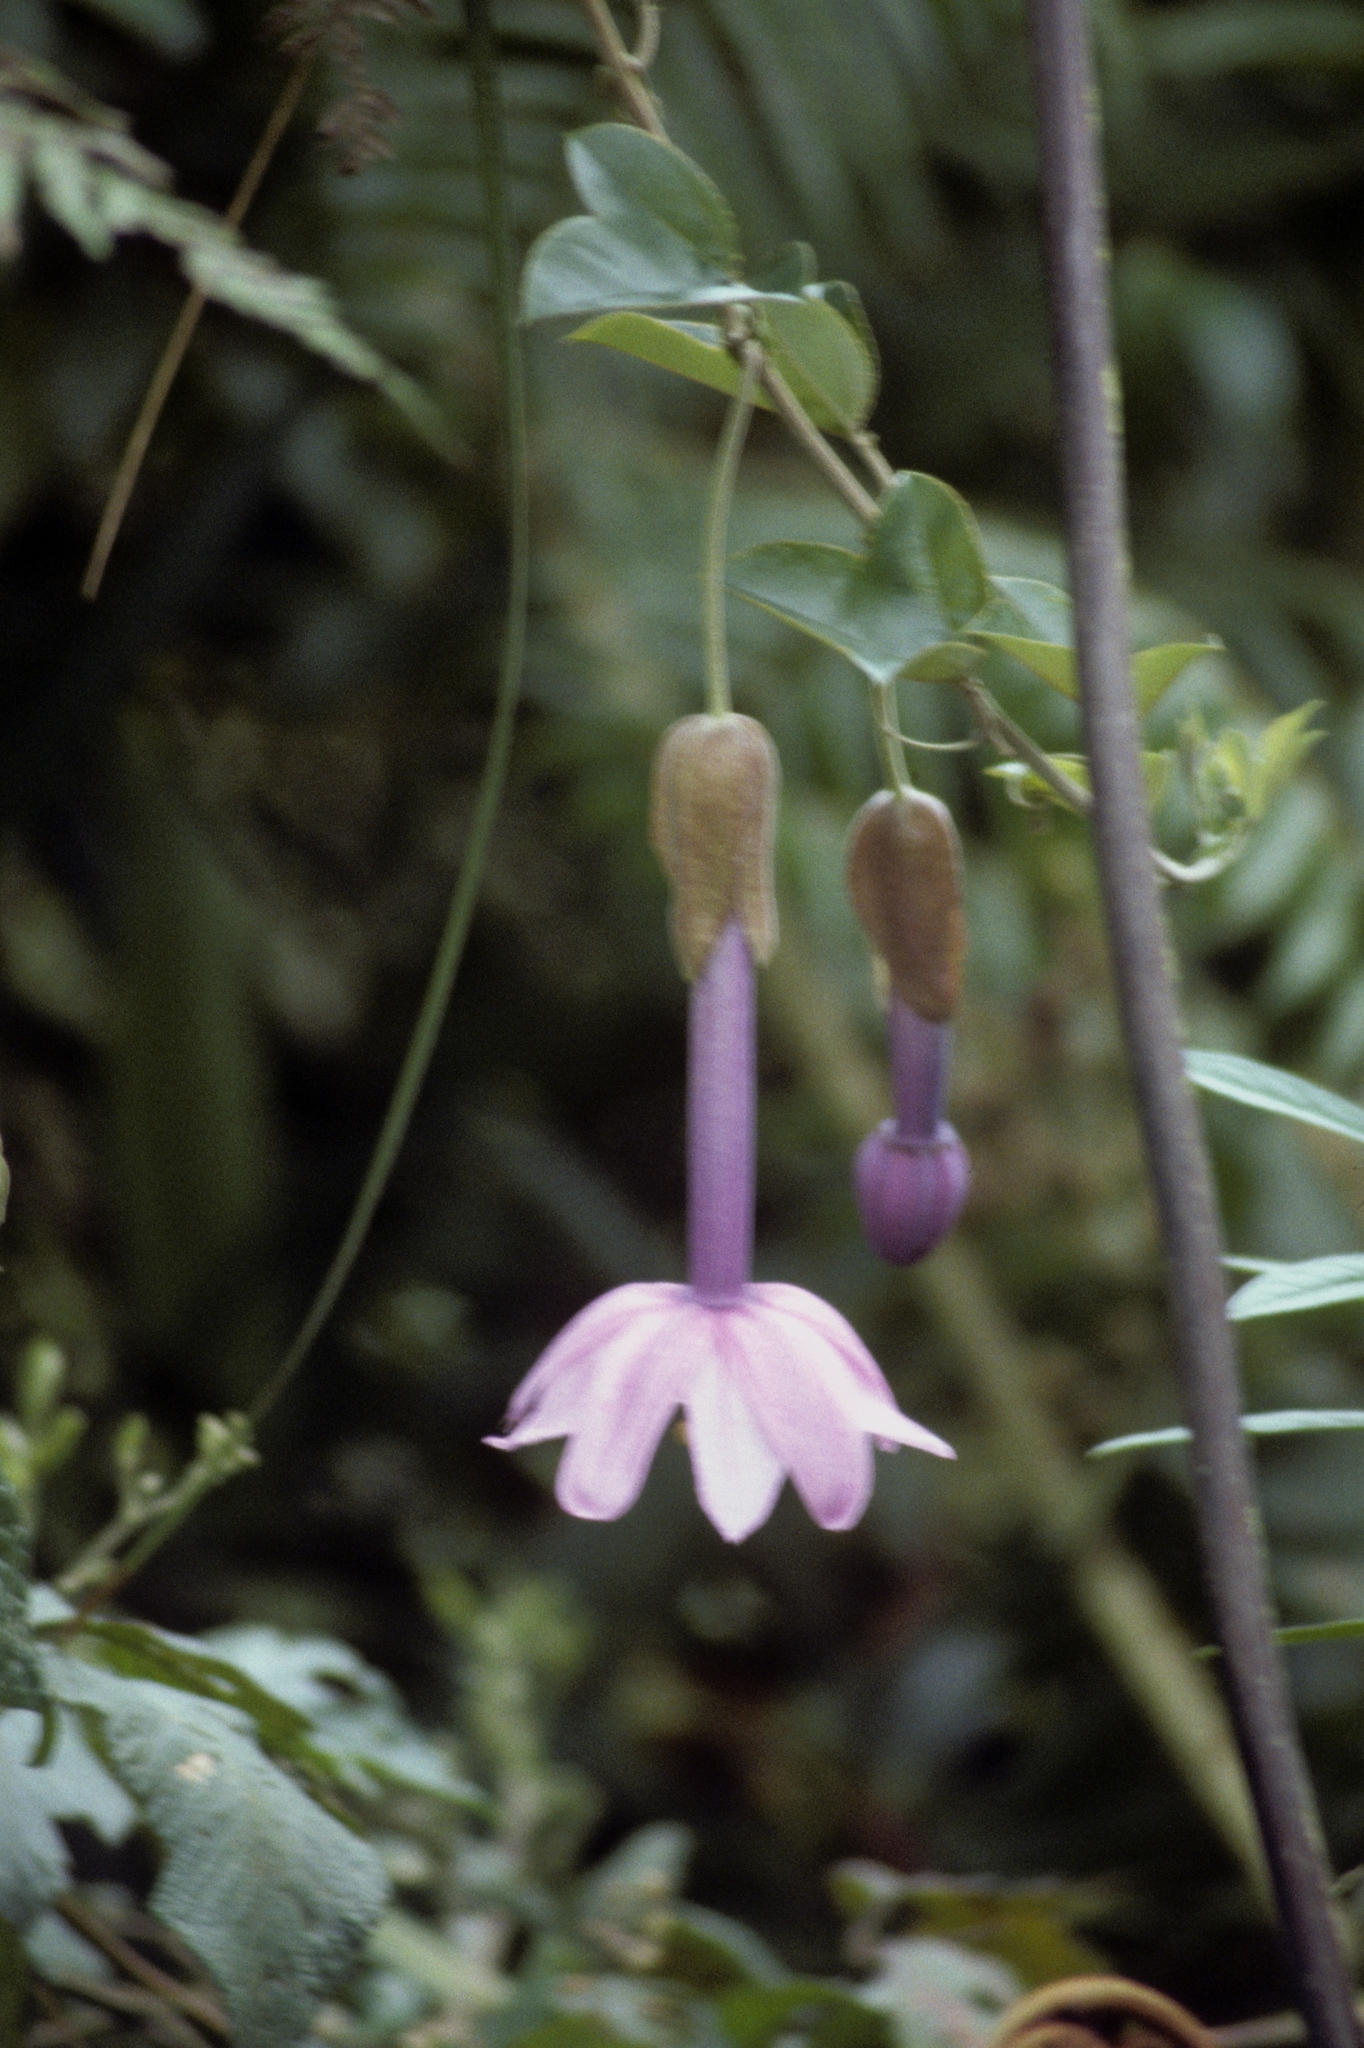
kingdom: Plantae
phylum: Tracheophyta
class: Magnoliopsida
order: Malpighiales
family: Passifloraceae
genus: Passiflora
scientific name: Passiflora cumbalensis
